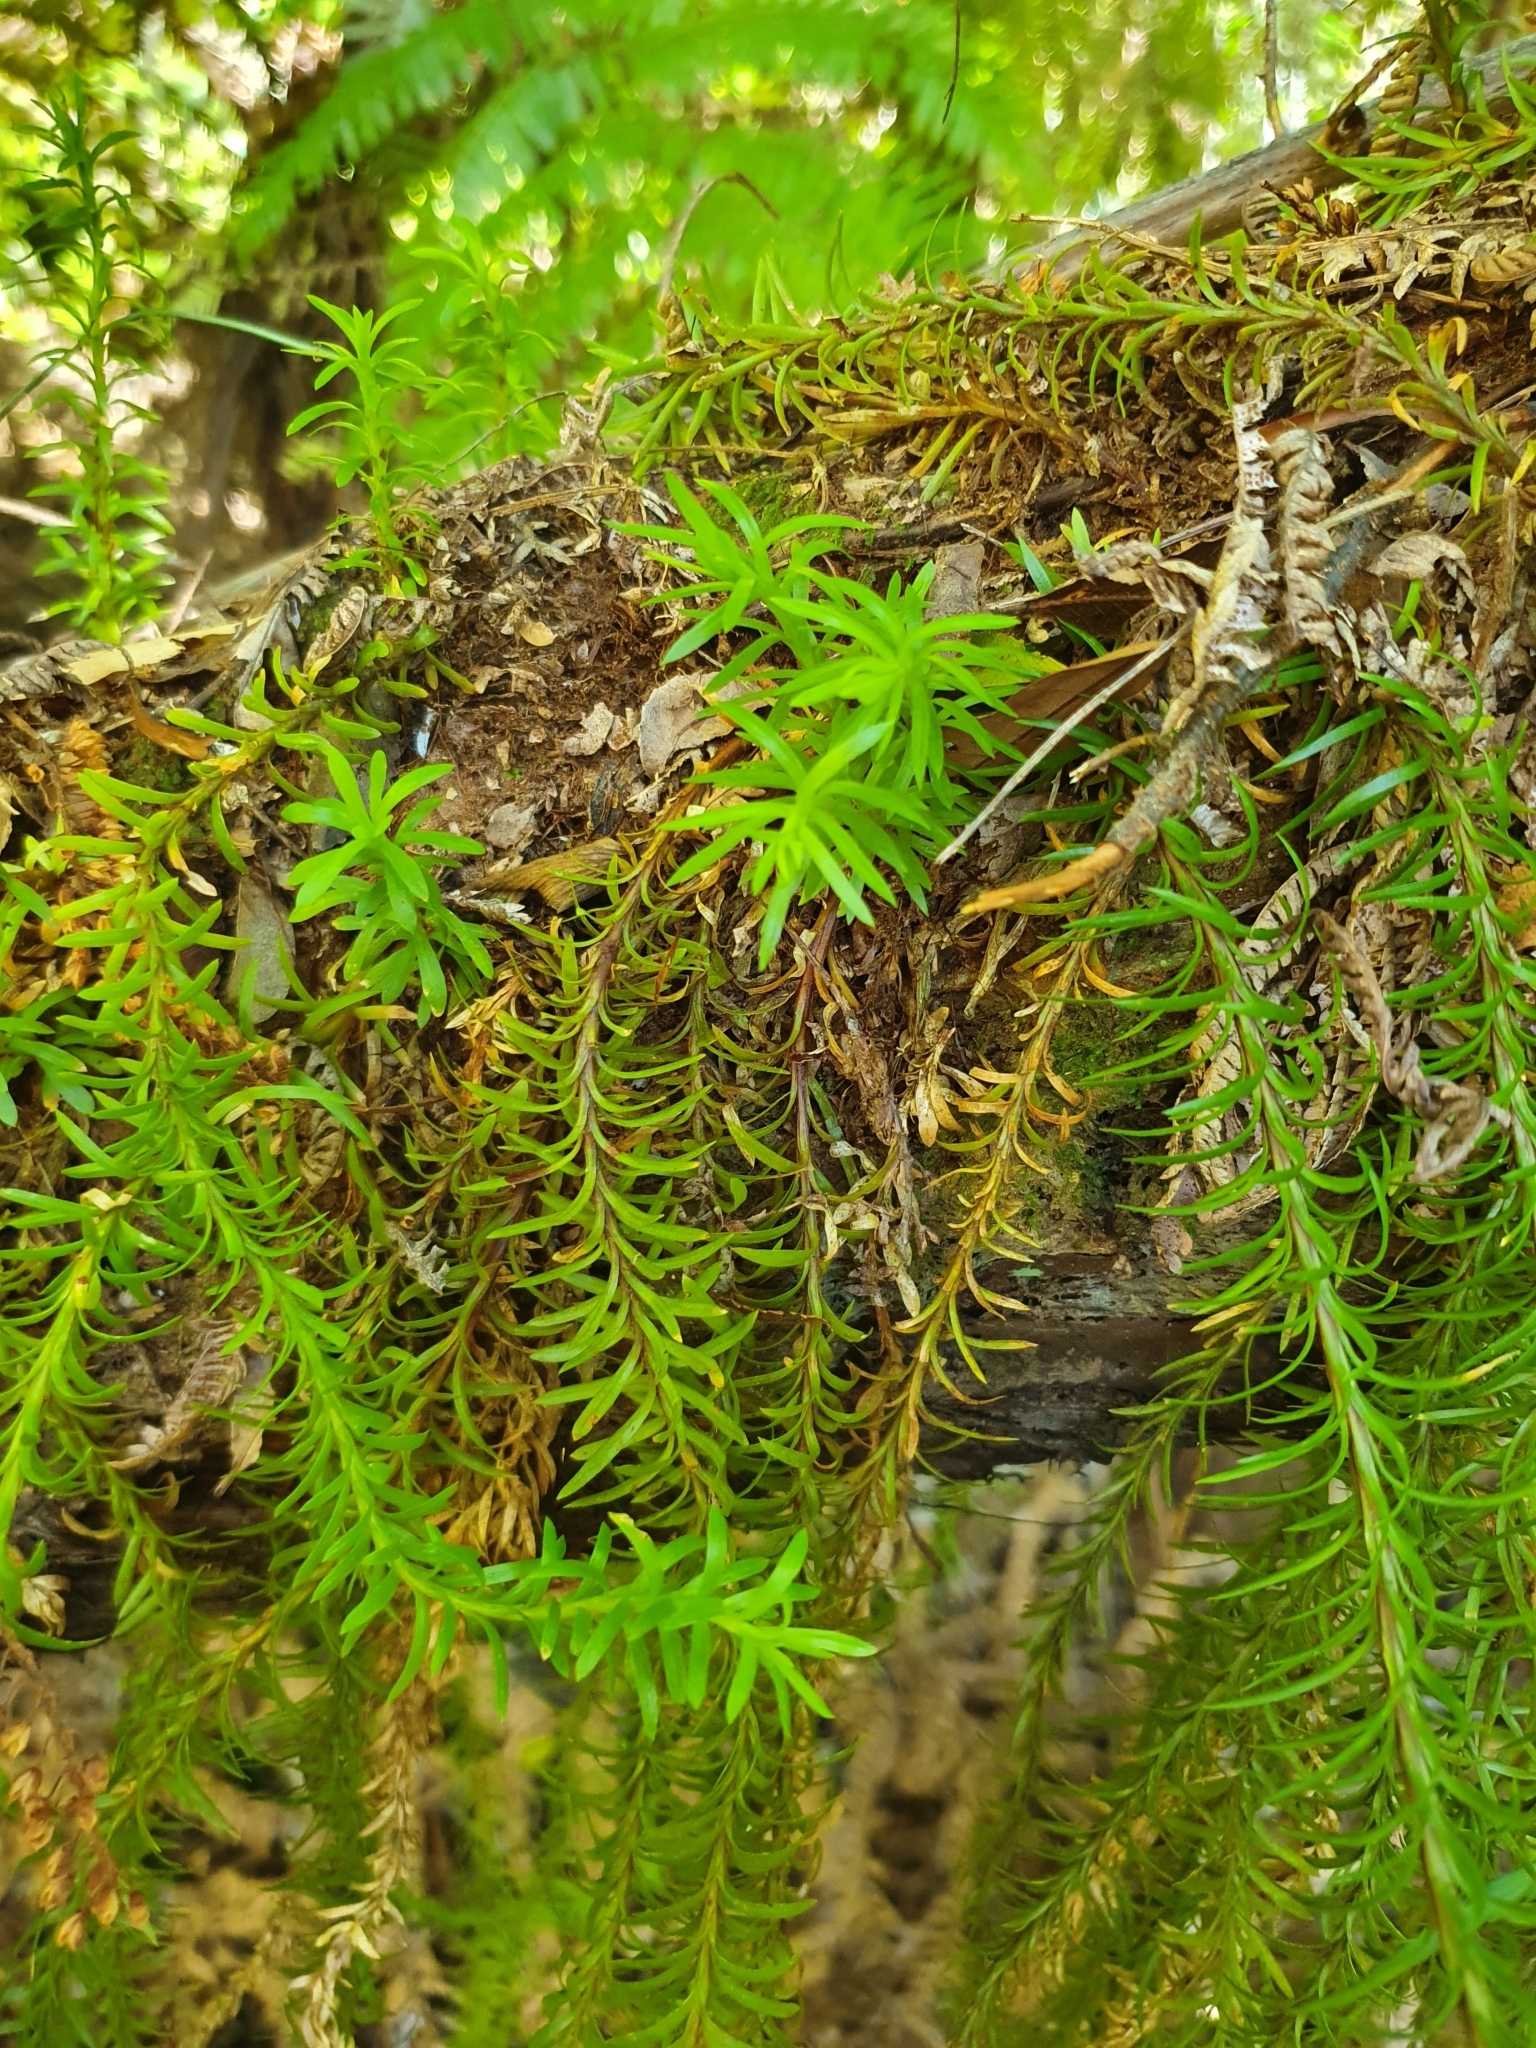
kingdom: Plantae
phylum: Tracheophyta
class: Lycopodiopsida
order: Lycopodiales
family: Lycopodiaceae
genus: Phlegmariurus
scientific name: Phlegmariurus billardierei
